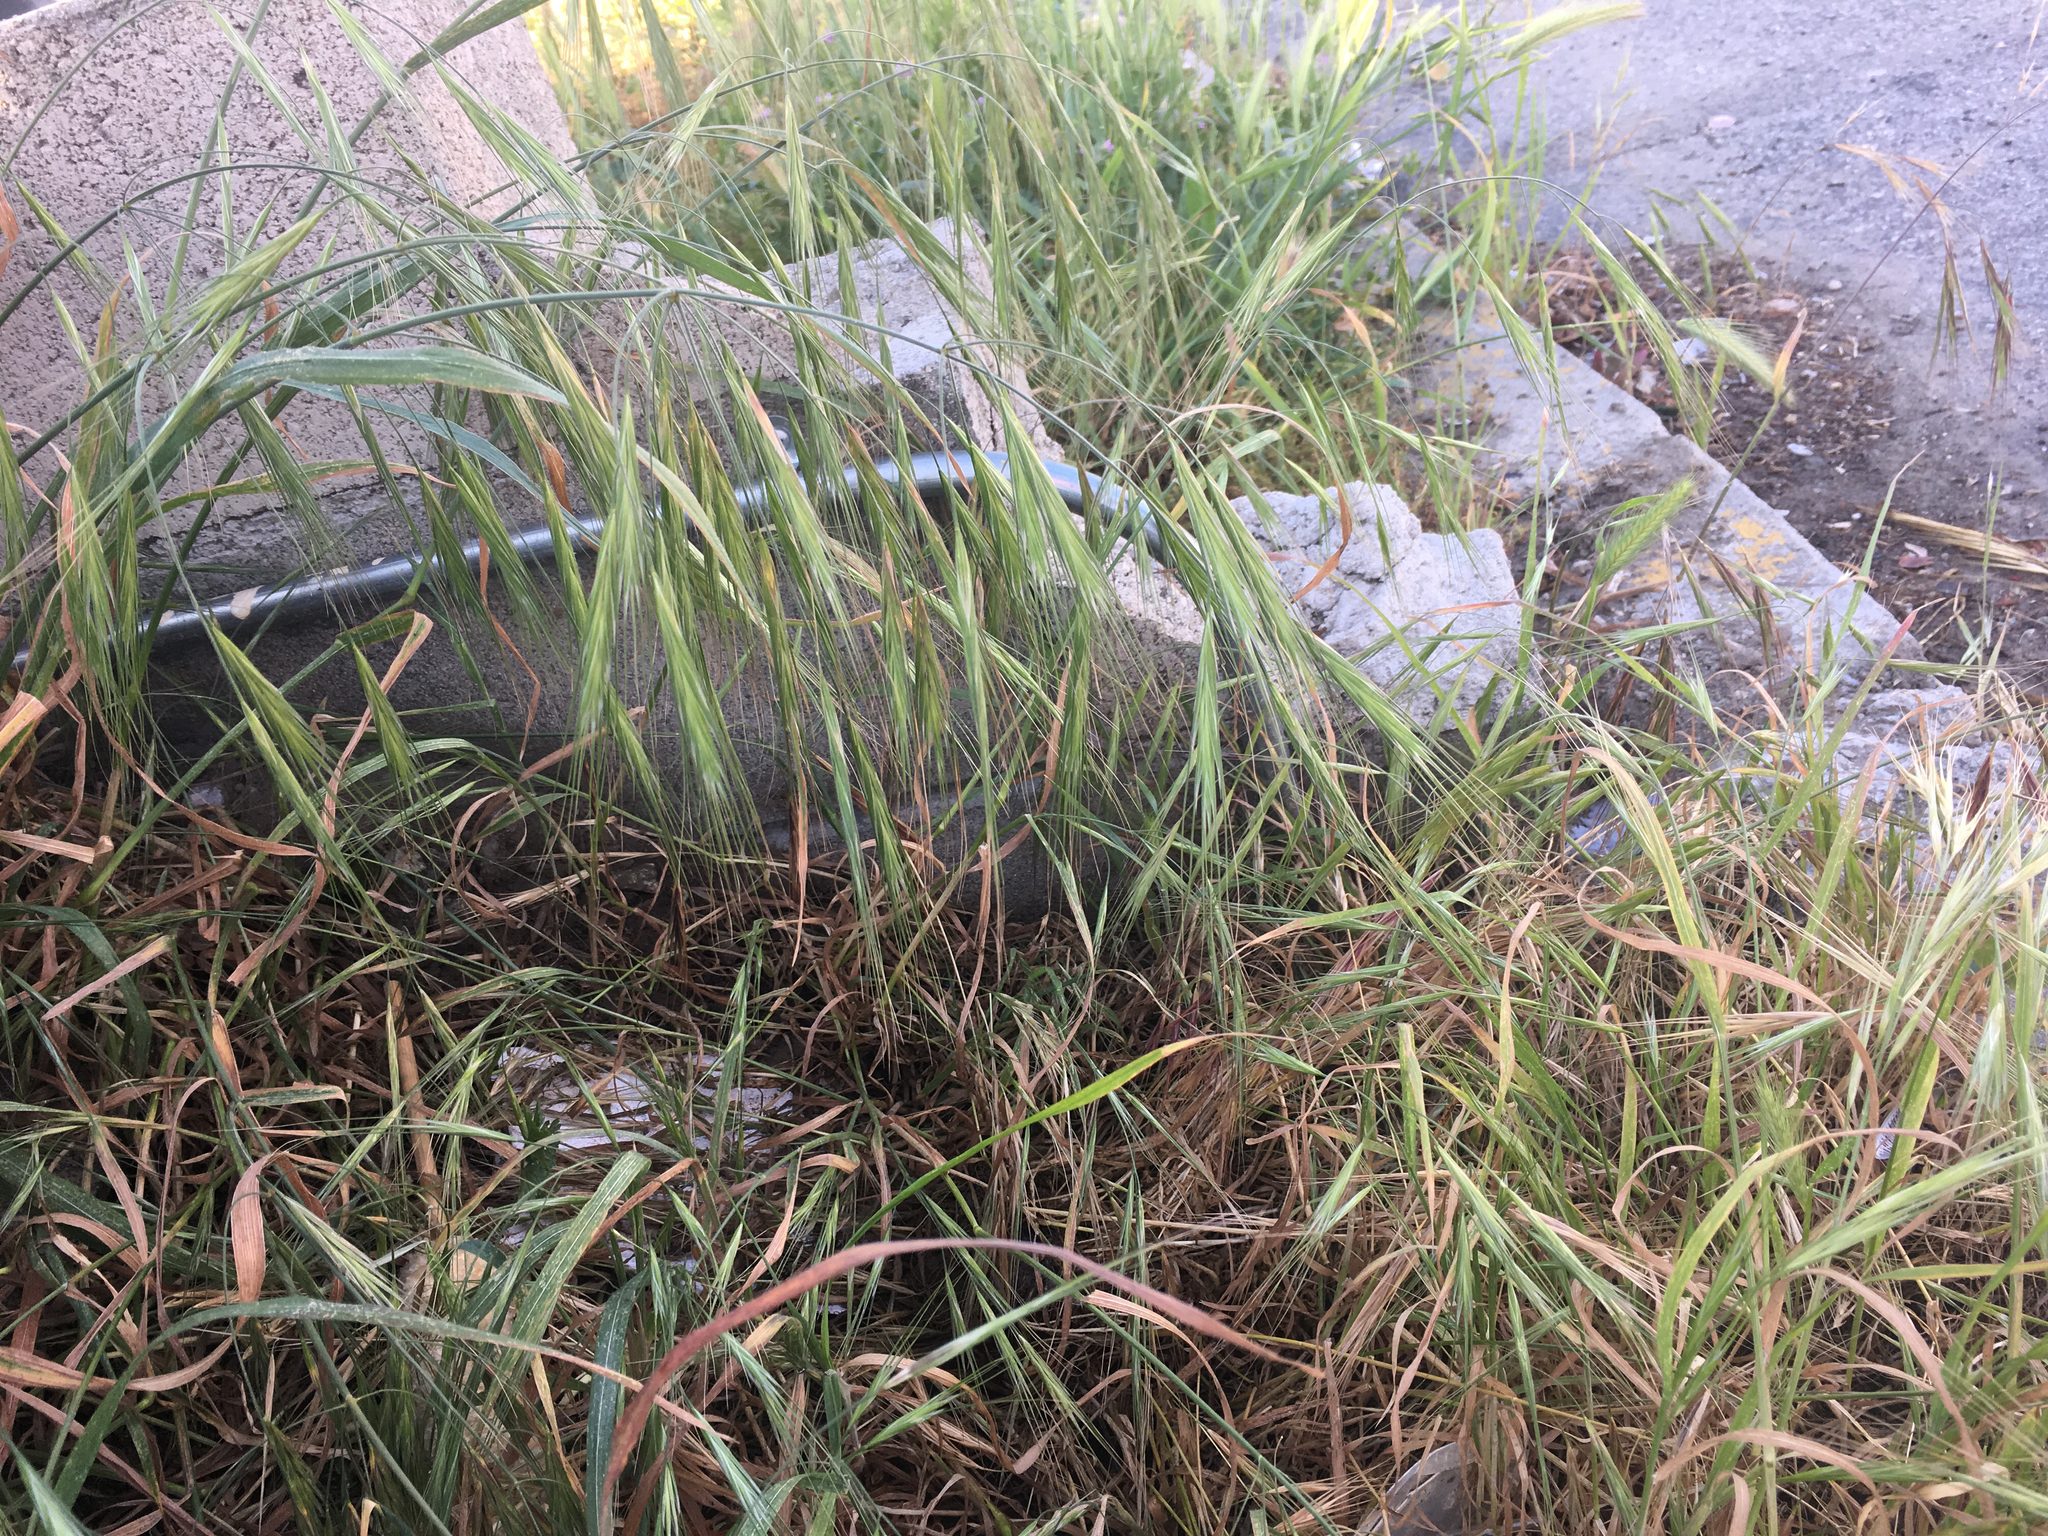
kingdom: Plantae
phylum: Tracheophyta
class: Liliopsida
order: Poales
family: Poaceae
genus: Bromus
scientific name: Bromus diandrus
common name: Ripgut brome
